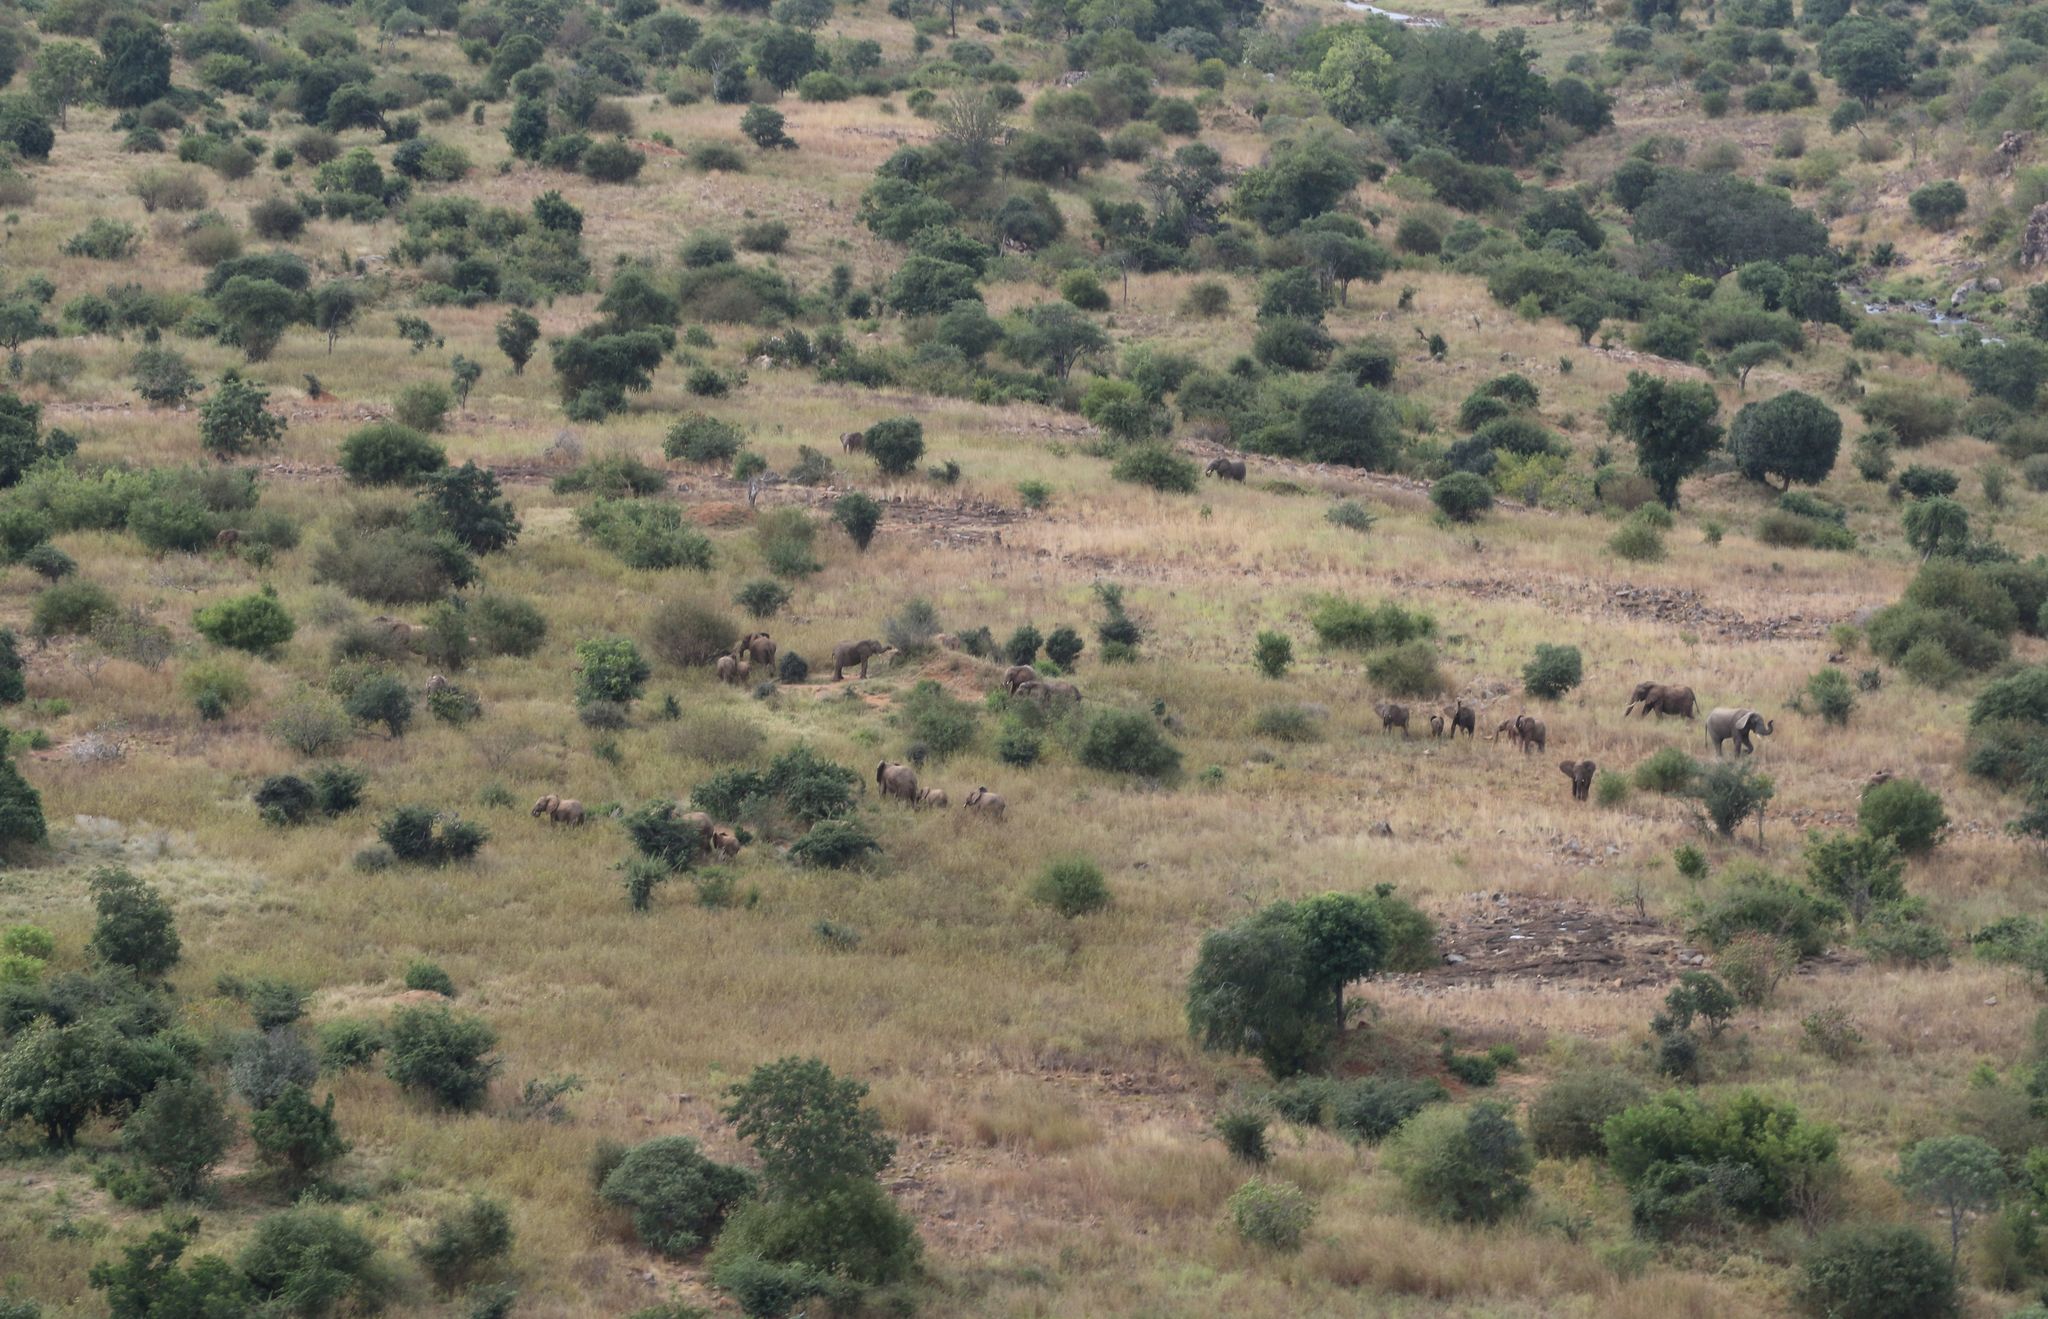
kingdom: Animalia
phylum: Chordata
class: Mammalia
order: Proboscidea
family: Elephantidae
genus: Loxodonta
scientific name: Loxodonta africana
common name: African elephant
